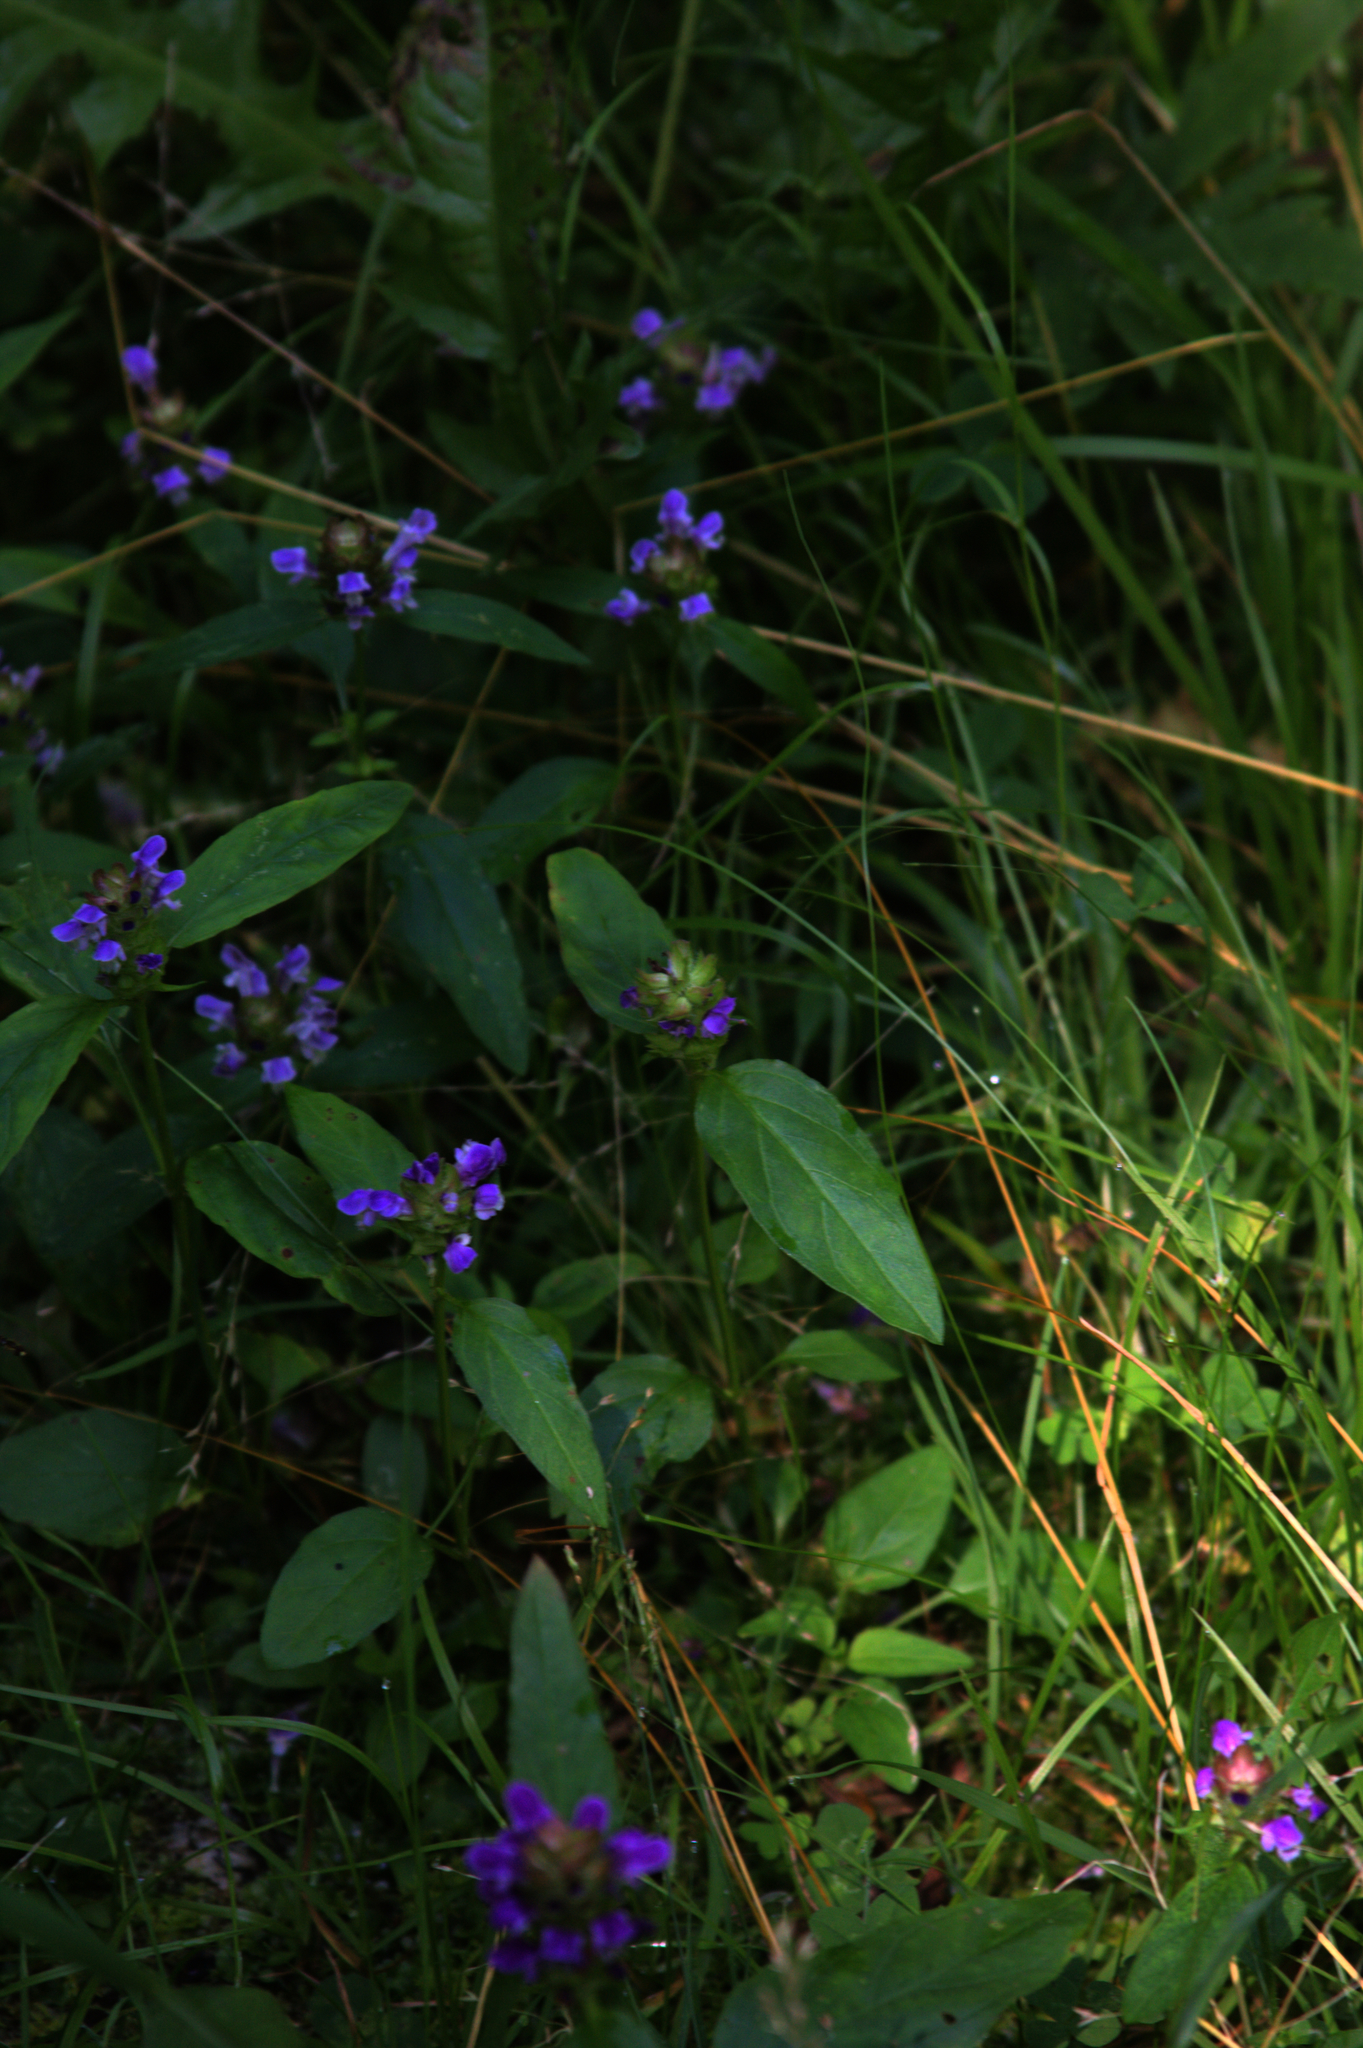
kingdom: Plantae
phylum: Tracheophyta
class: Magnoliopsida
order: Lamiales
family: Lamiaceae
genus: Prunella
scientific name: Prunella vulgaris
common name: Heal-all
